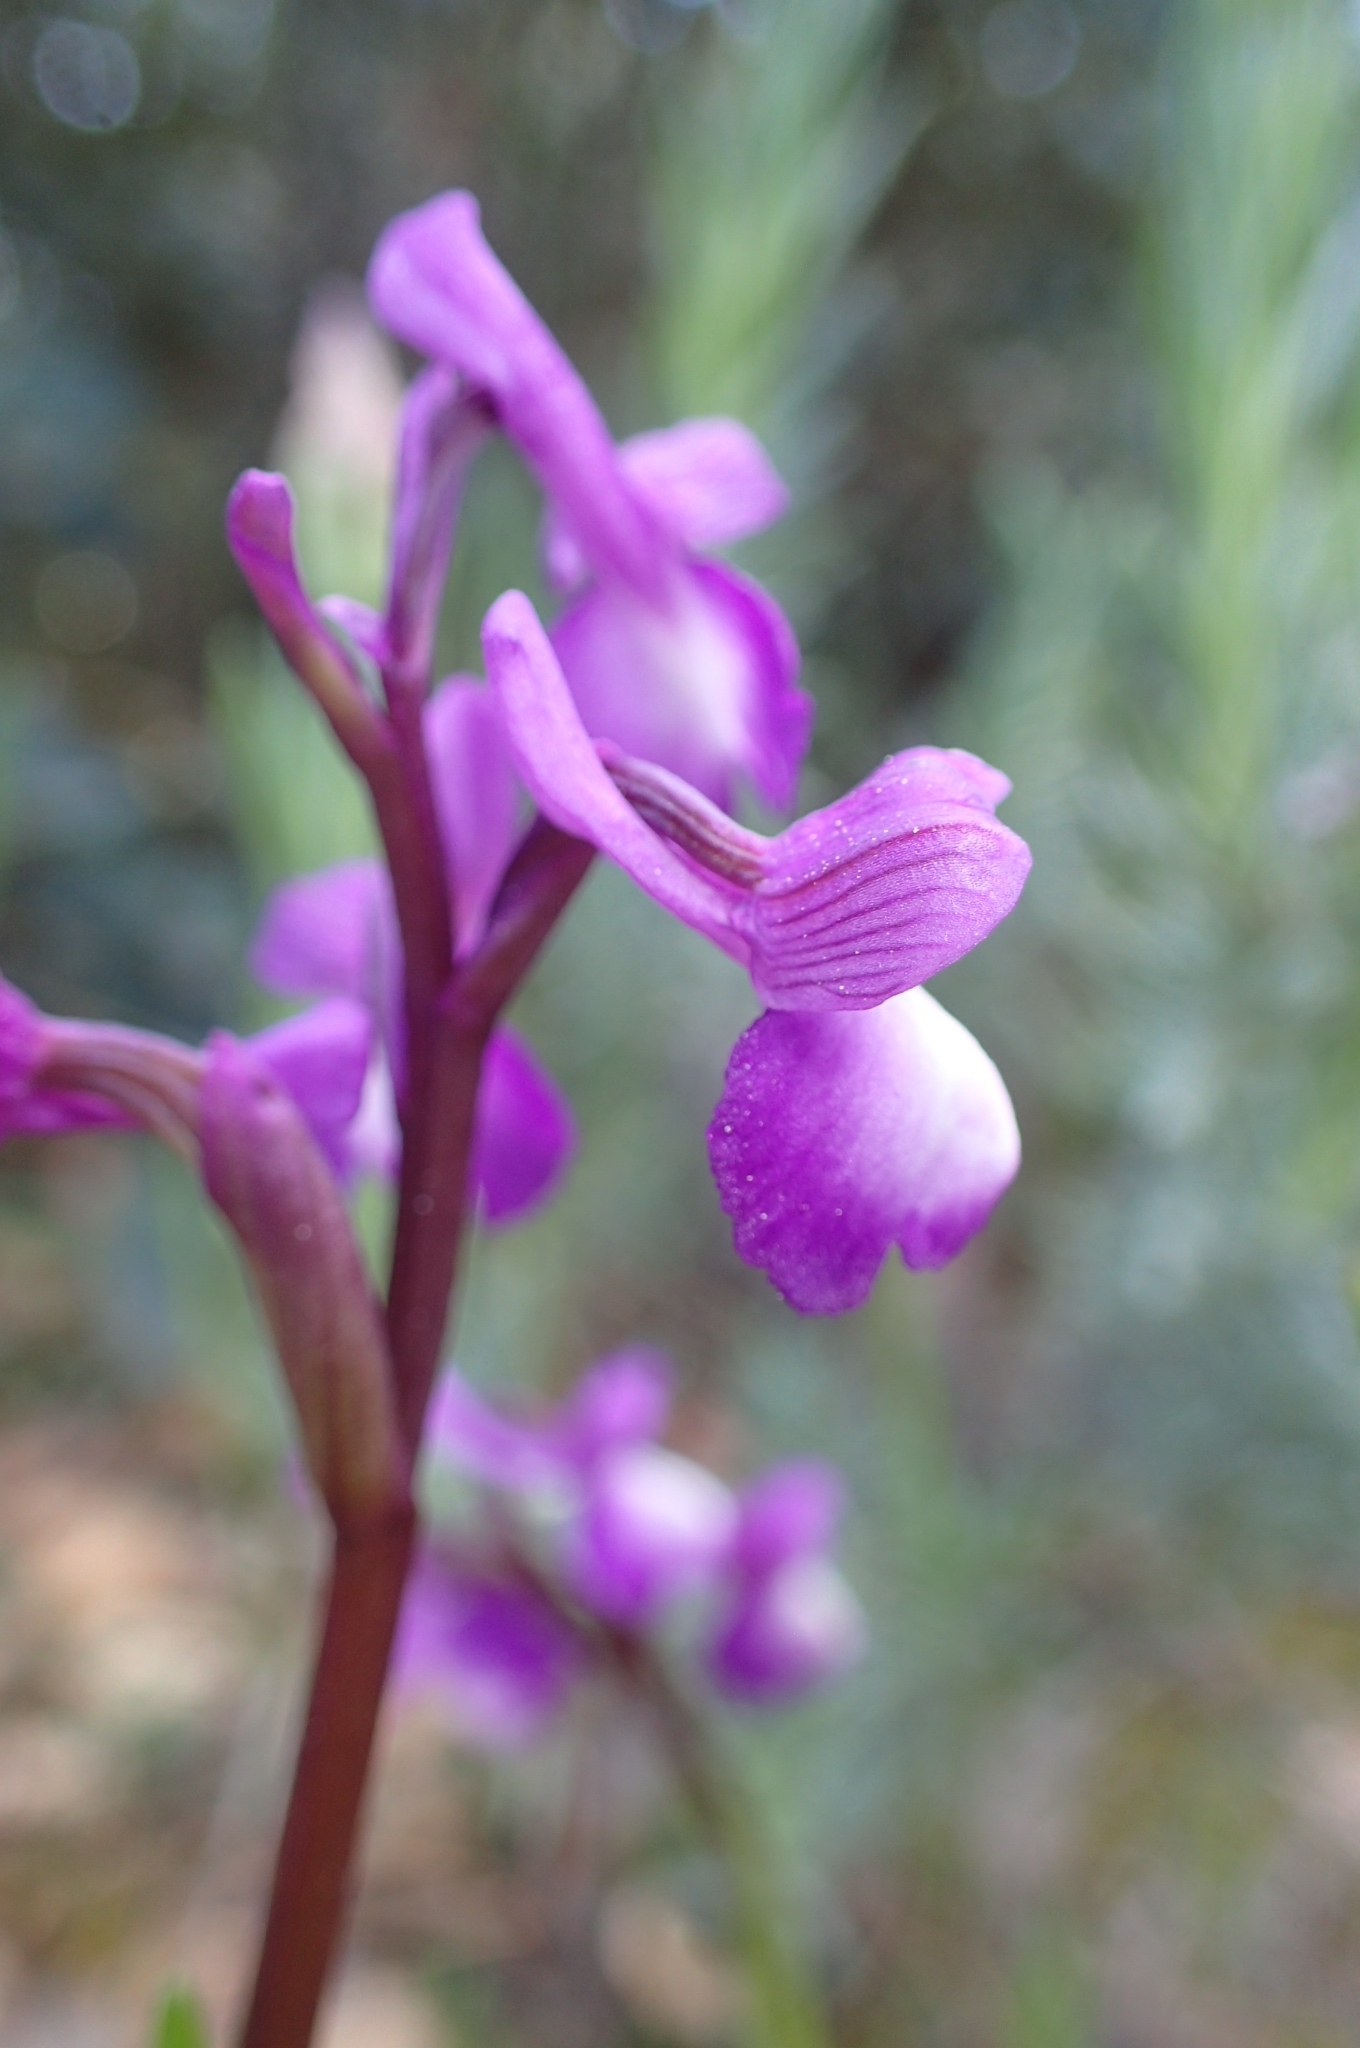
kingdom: Plantae
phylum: Tracheophyta
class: Liliopsida
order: Asparagales
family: Orchidaceae
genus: Anacamptis
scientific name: Anacamptis morio
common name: Green-winged orchid
